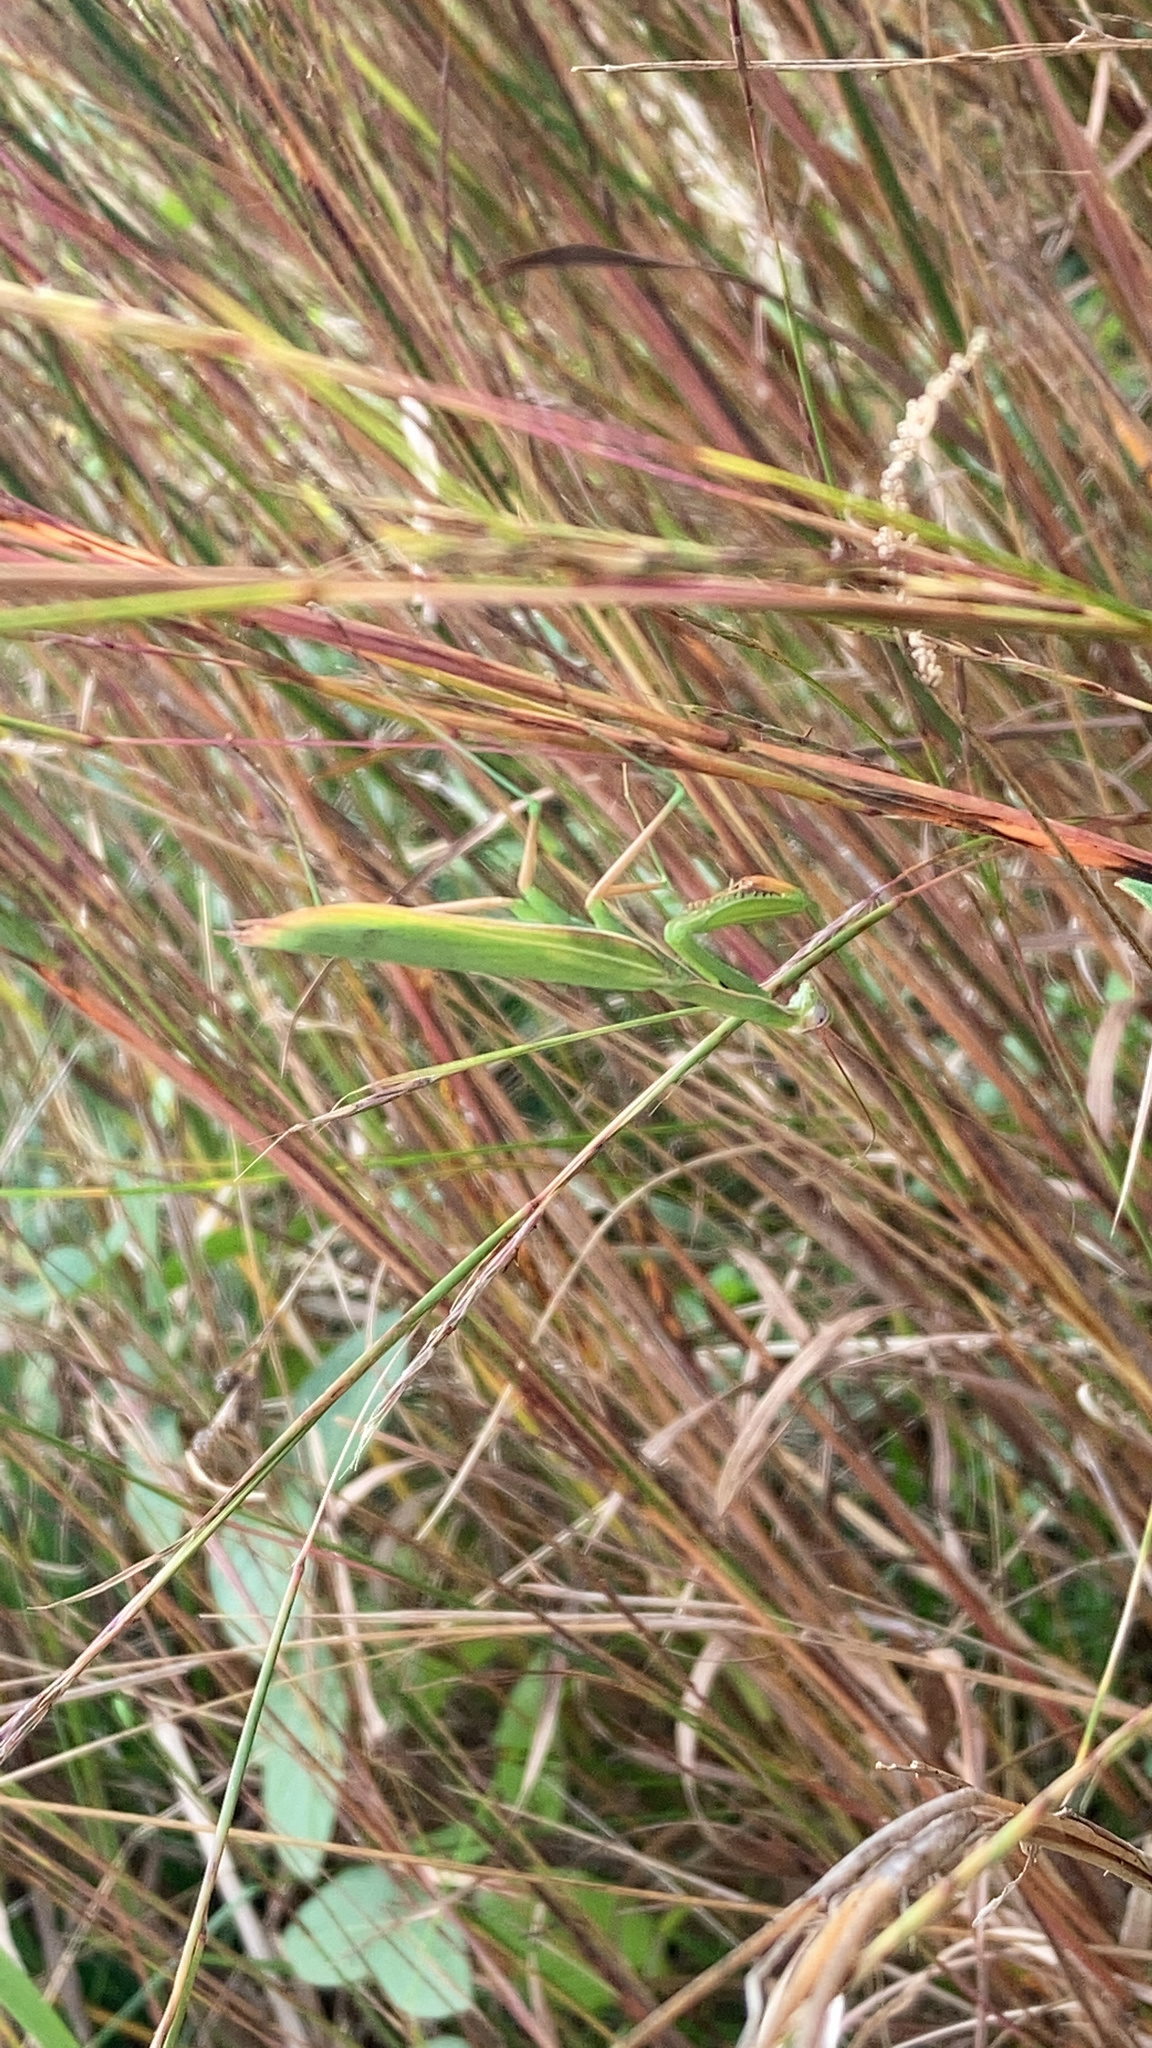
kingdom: Animalia
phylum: Arthropoda
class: Insecta
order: Mantodea
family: Mantidae
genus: Mantis
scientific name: Mantis religiosa
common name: Praying mantis
